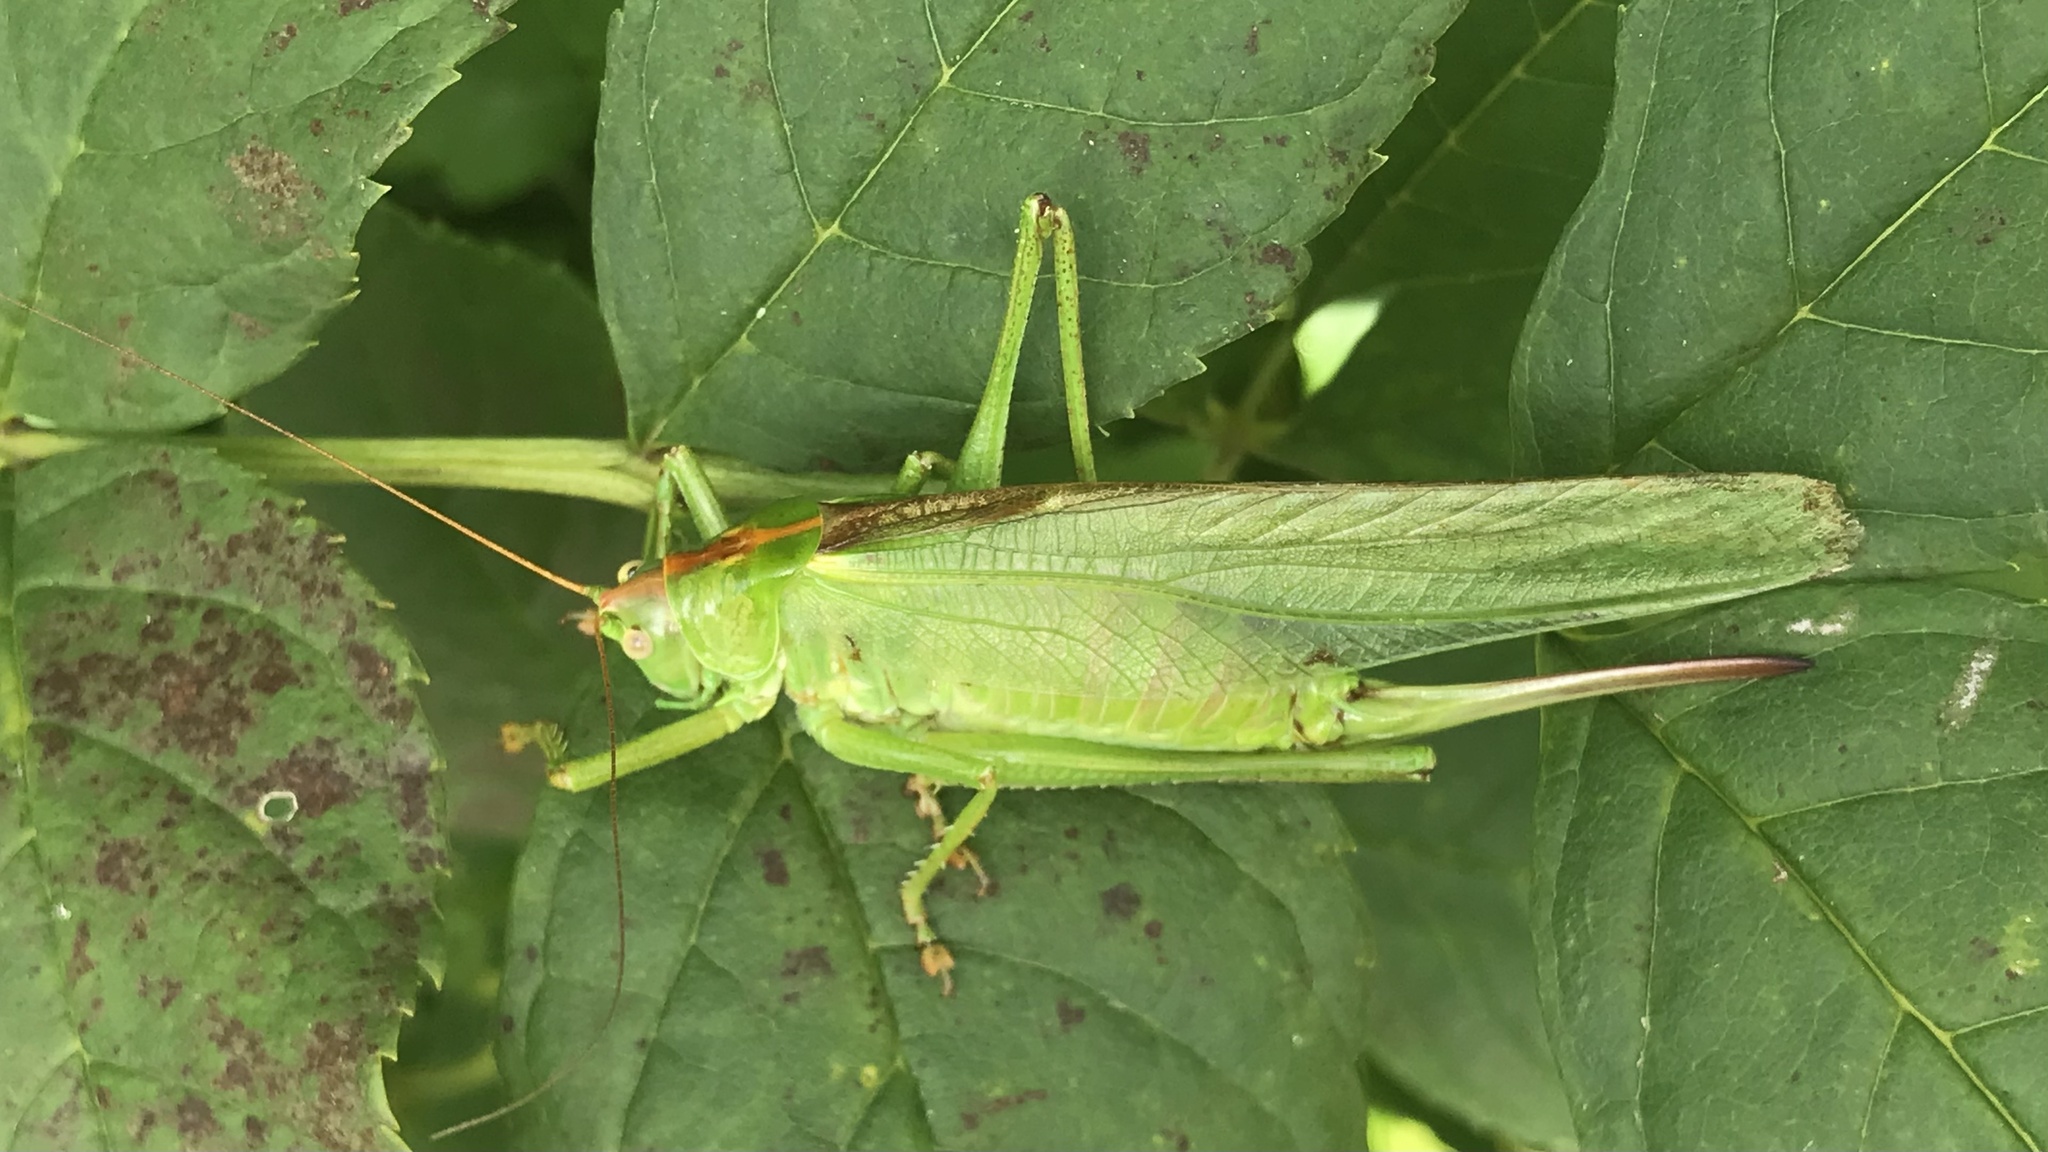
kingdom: Animalia
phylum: Arthropoda
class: Insecta
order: Orthoptera
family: Tettigoniidae
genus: Tettigonia
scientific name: Tettigonia viridissima
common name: Great green bush-cricket
